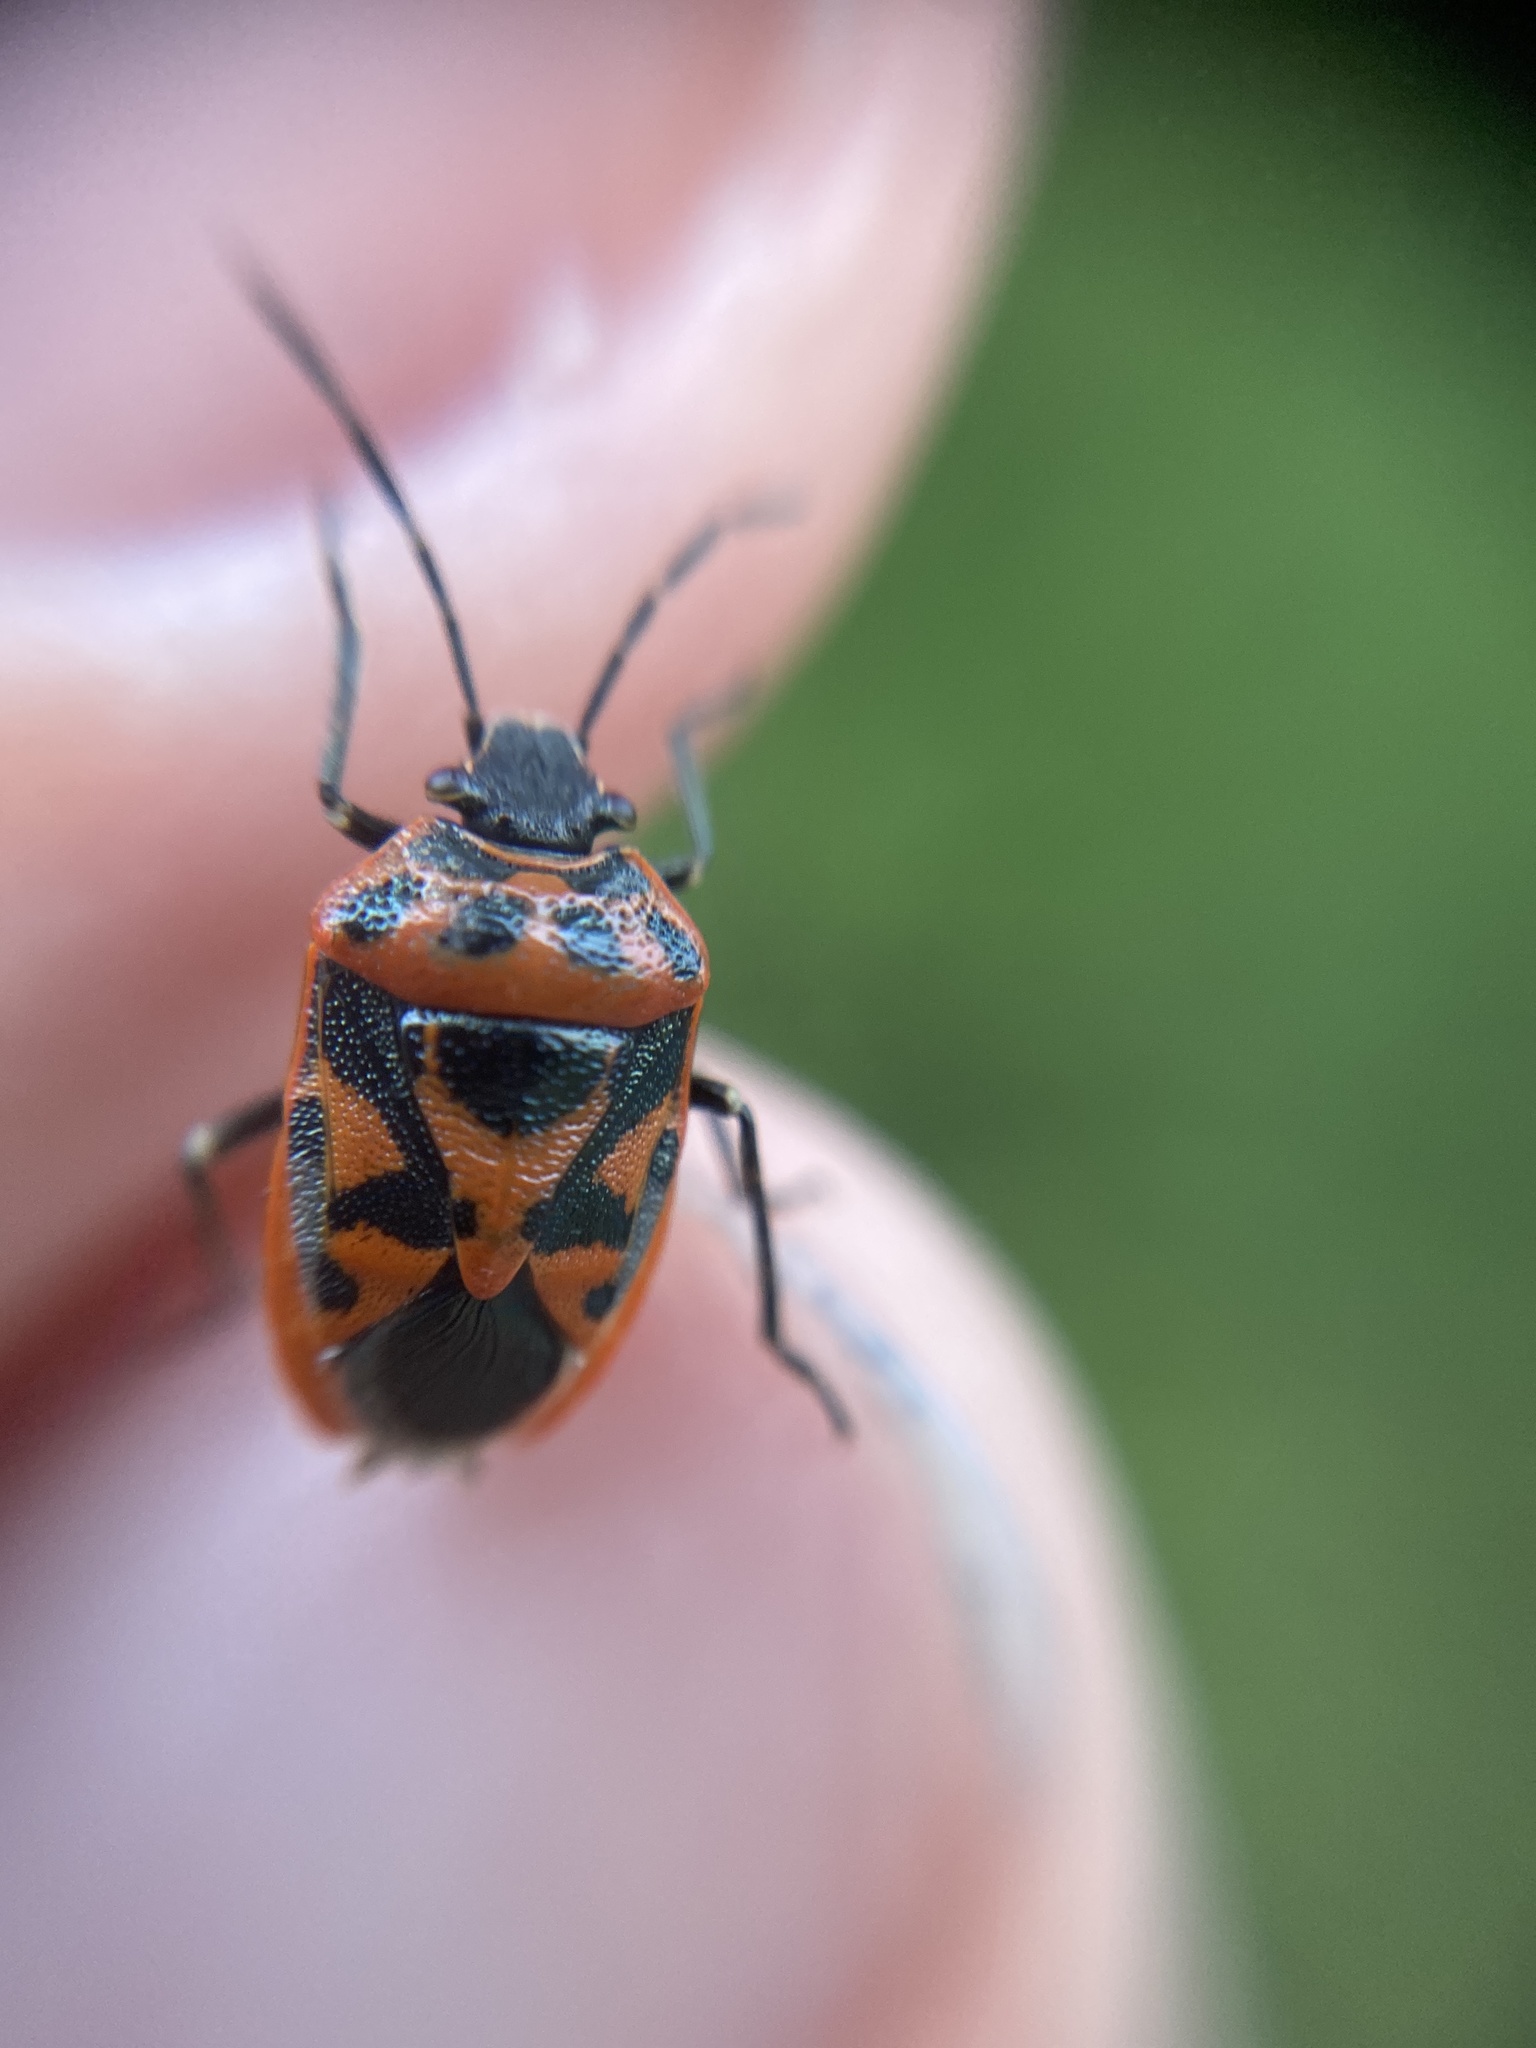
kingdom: Animalia
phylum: Arthropoda
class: Insecta
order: Hemiptera
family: Pentatomidae
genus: Eurydema
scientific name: Eurydema ornata
